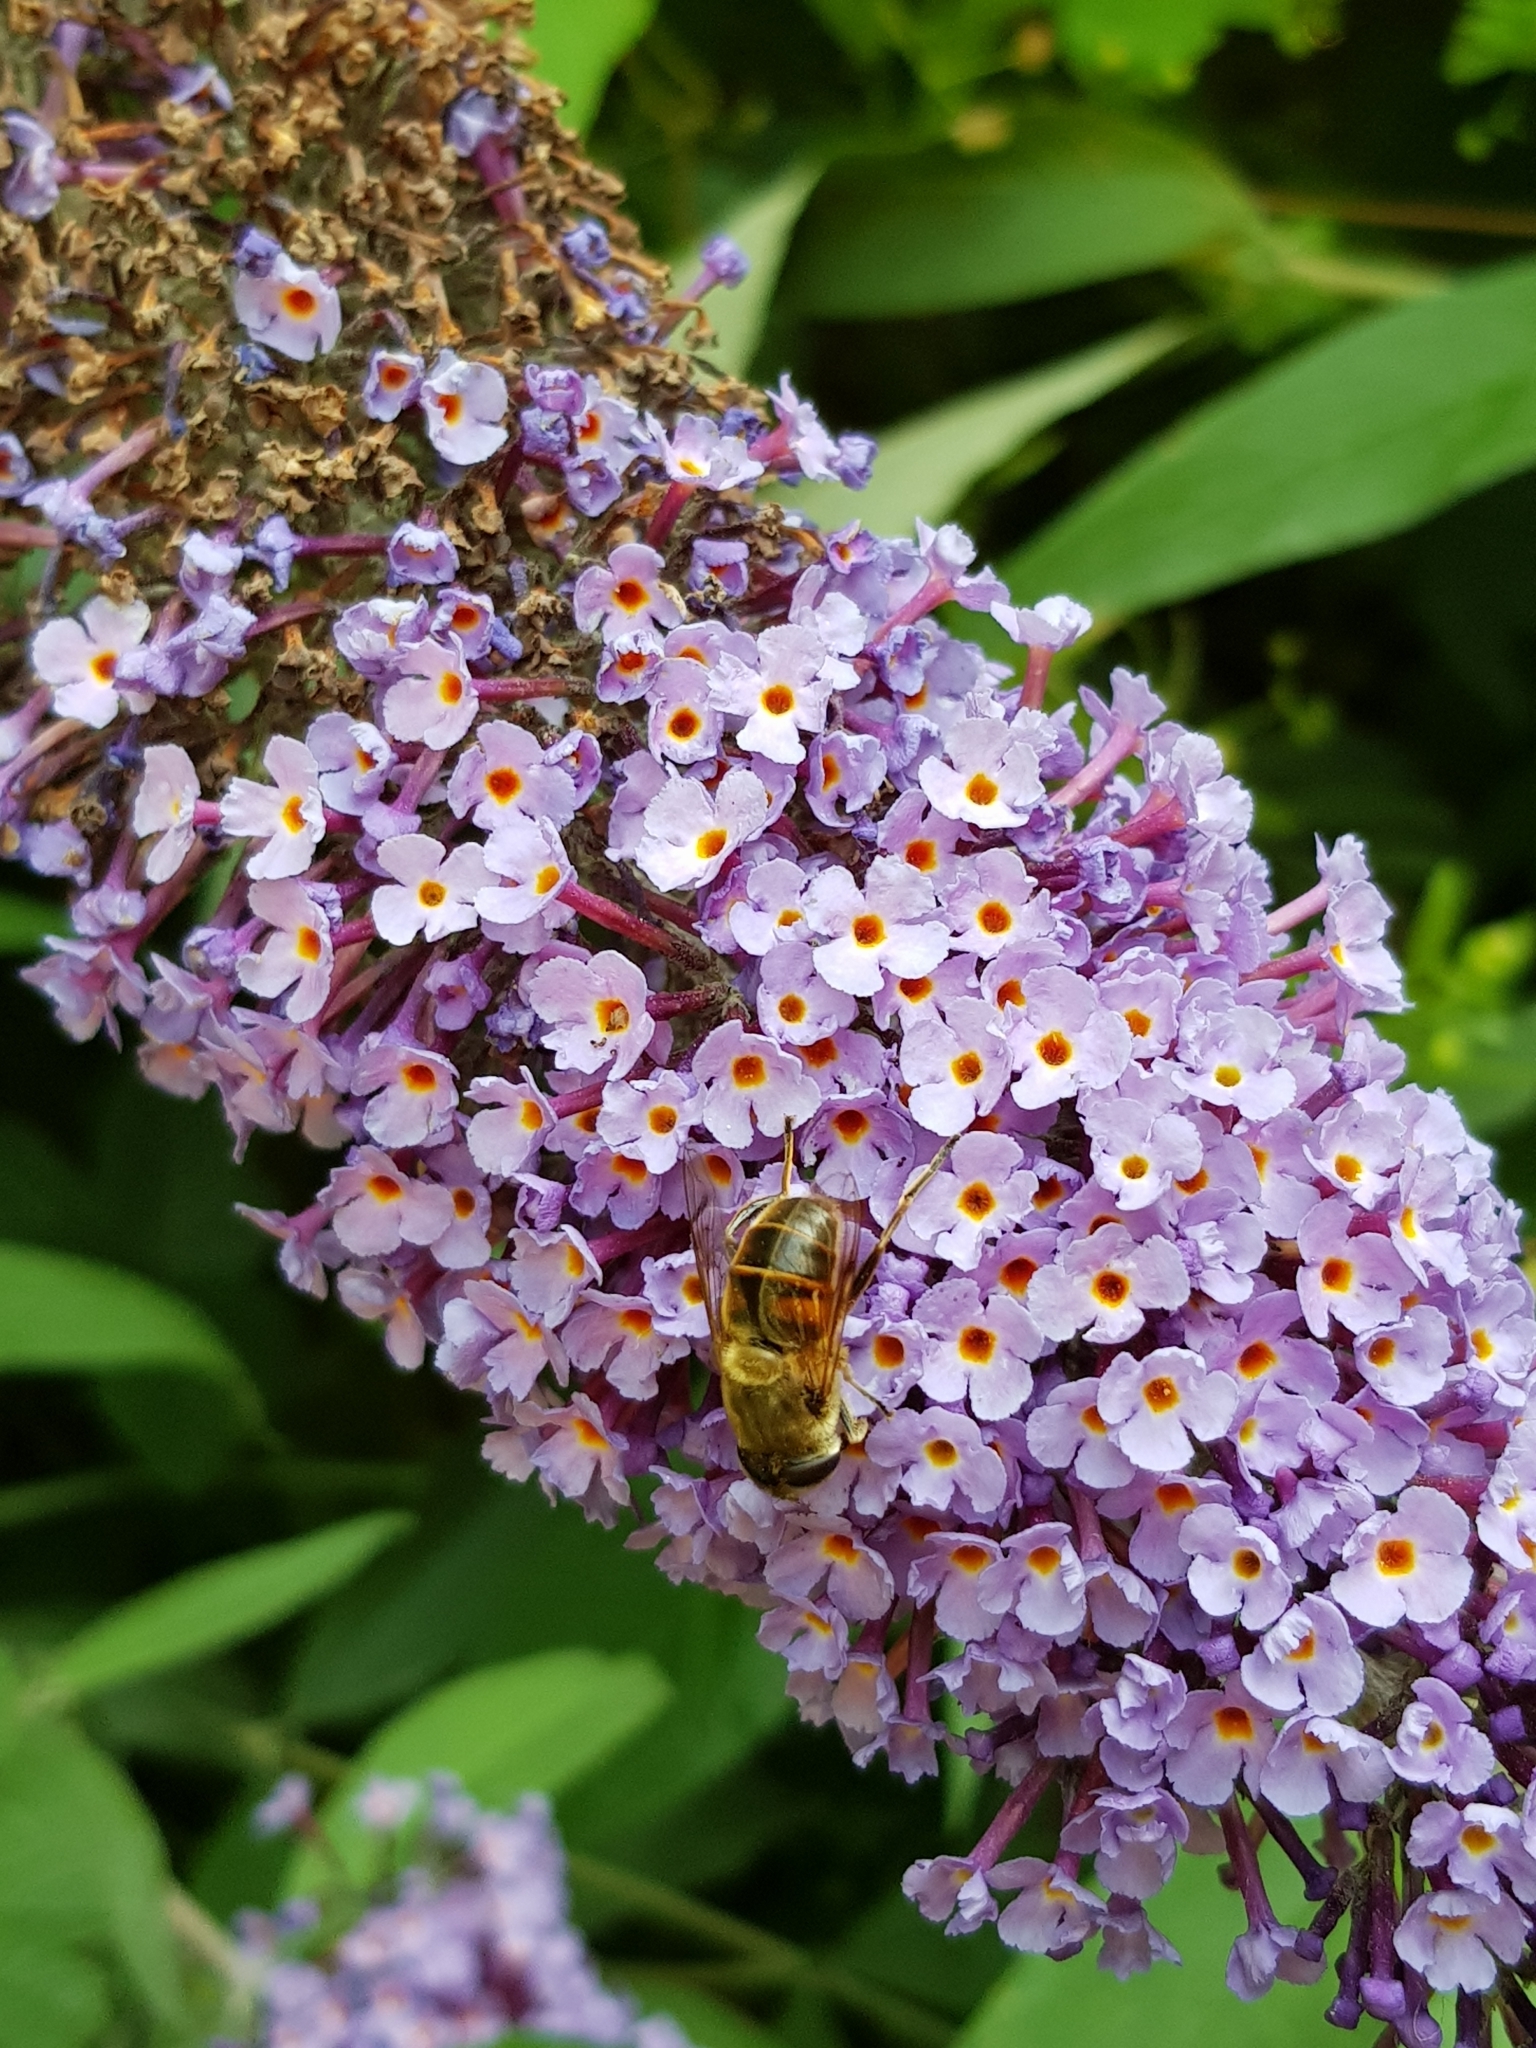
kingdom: Animalia
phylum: Arthropoda
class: Insecta
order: Diptera
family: Syrphidae
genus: Eristalis
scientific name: Eristalis tenax
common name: Drone fly
